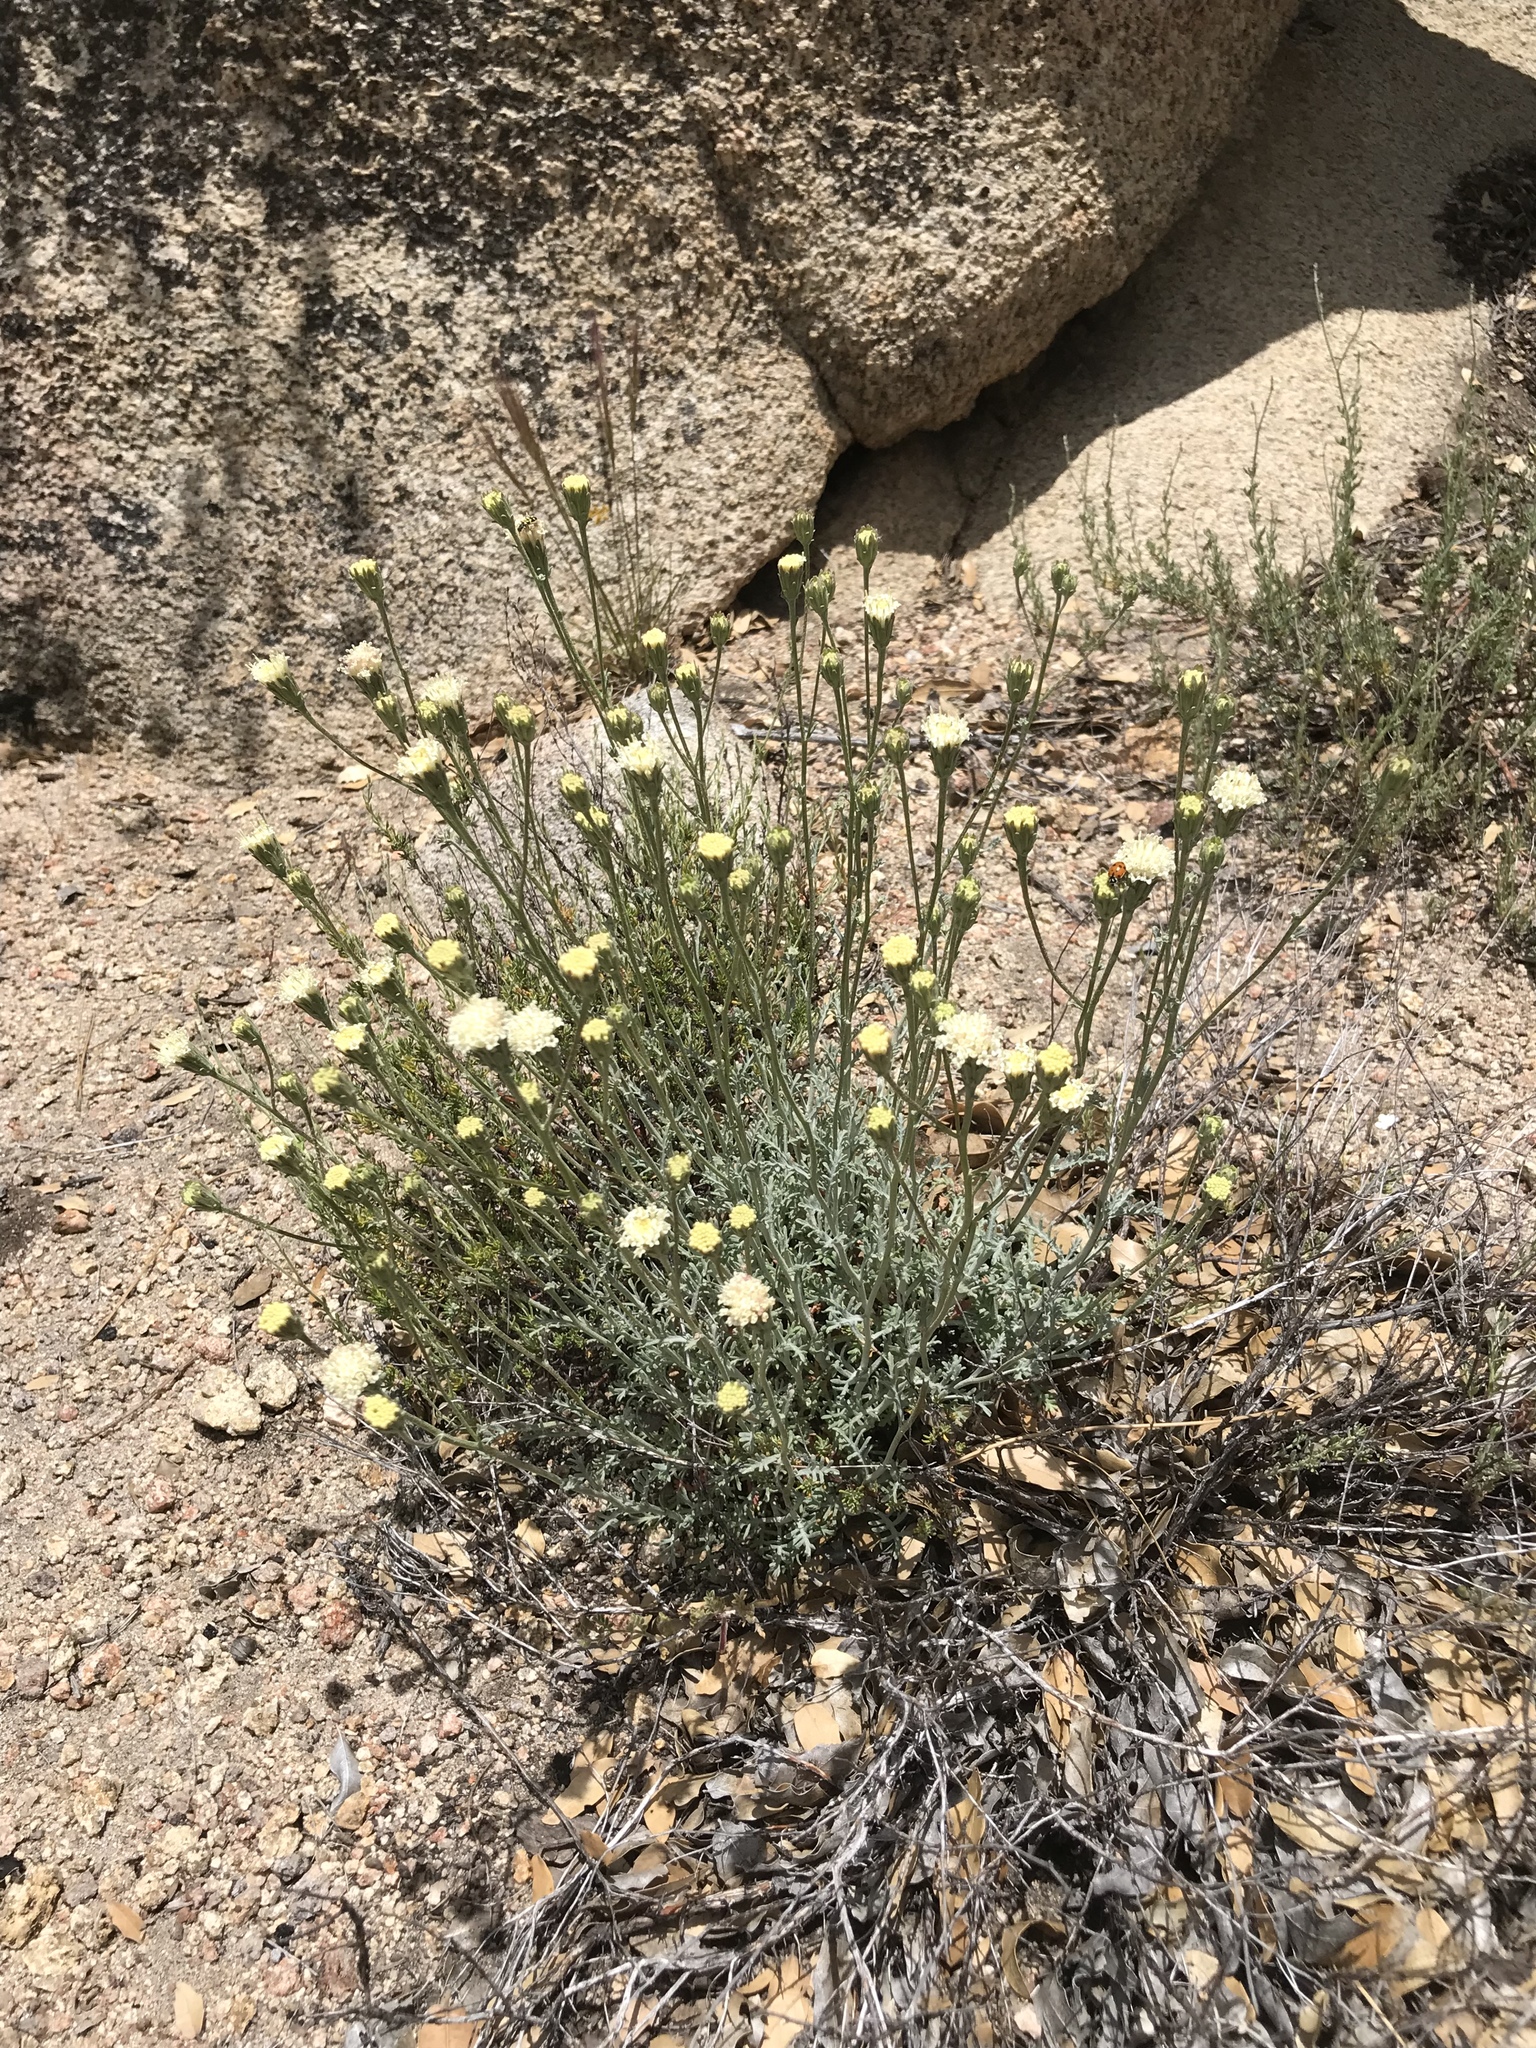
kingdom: Plantae
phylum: Tracheophyta
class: Magnoliopsida
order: Asterales
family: Asteraceae
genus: Chaenactis
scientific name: Chaenactis parishii
